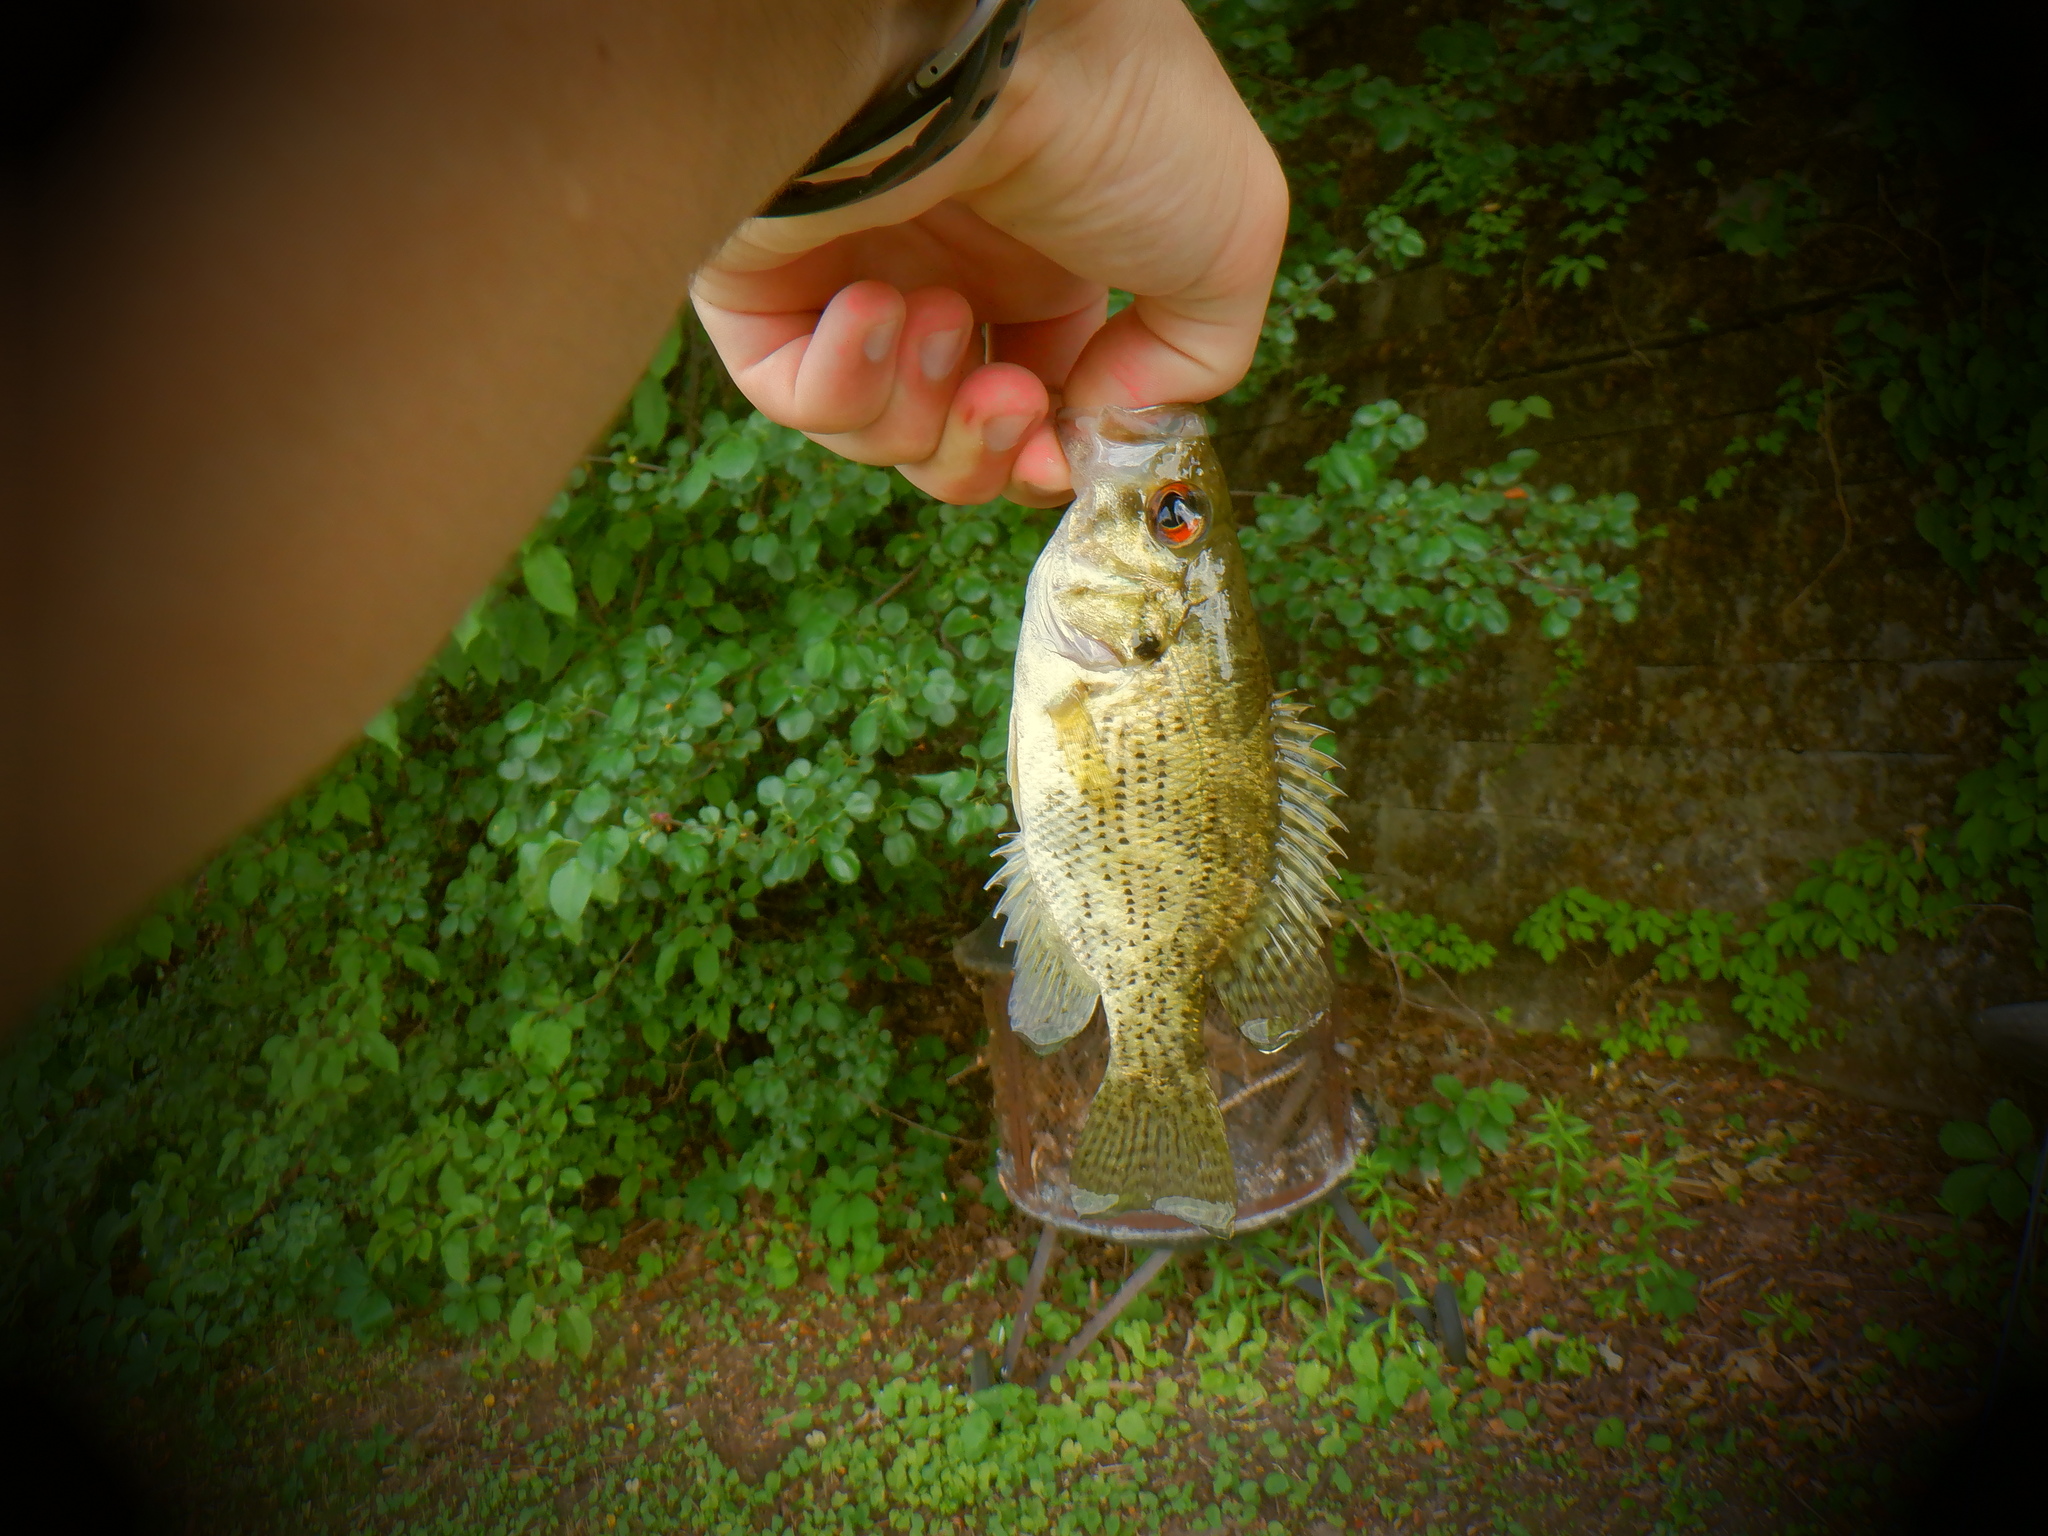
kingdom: Animalia
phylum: Chordata
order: Perciformes
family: Centrarchidae
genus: Ambloplites
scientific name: Ambloplites rupestris
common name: Rock bass
